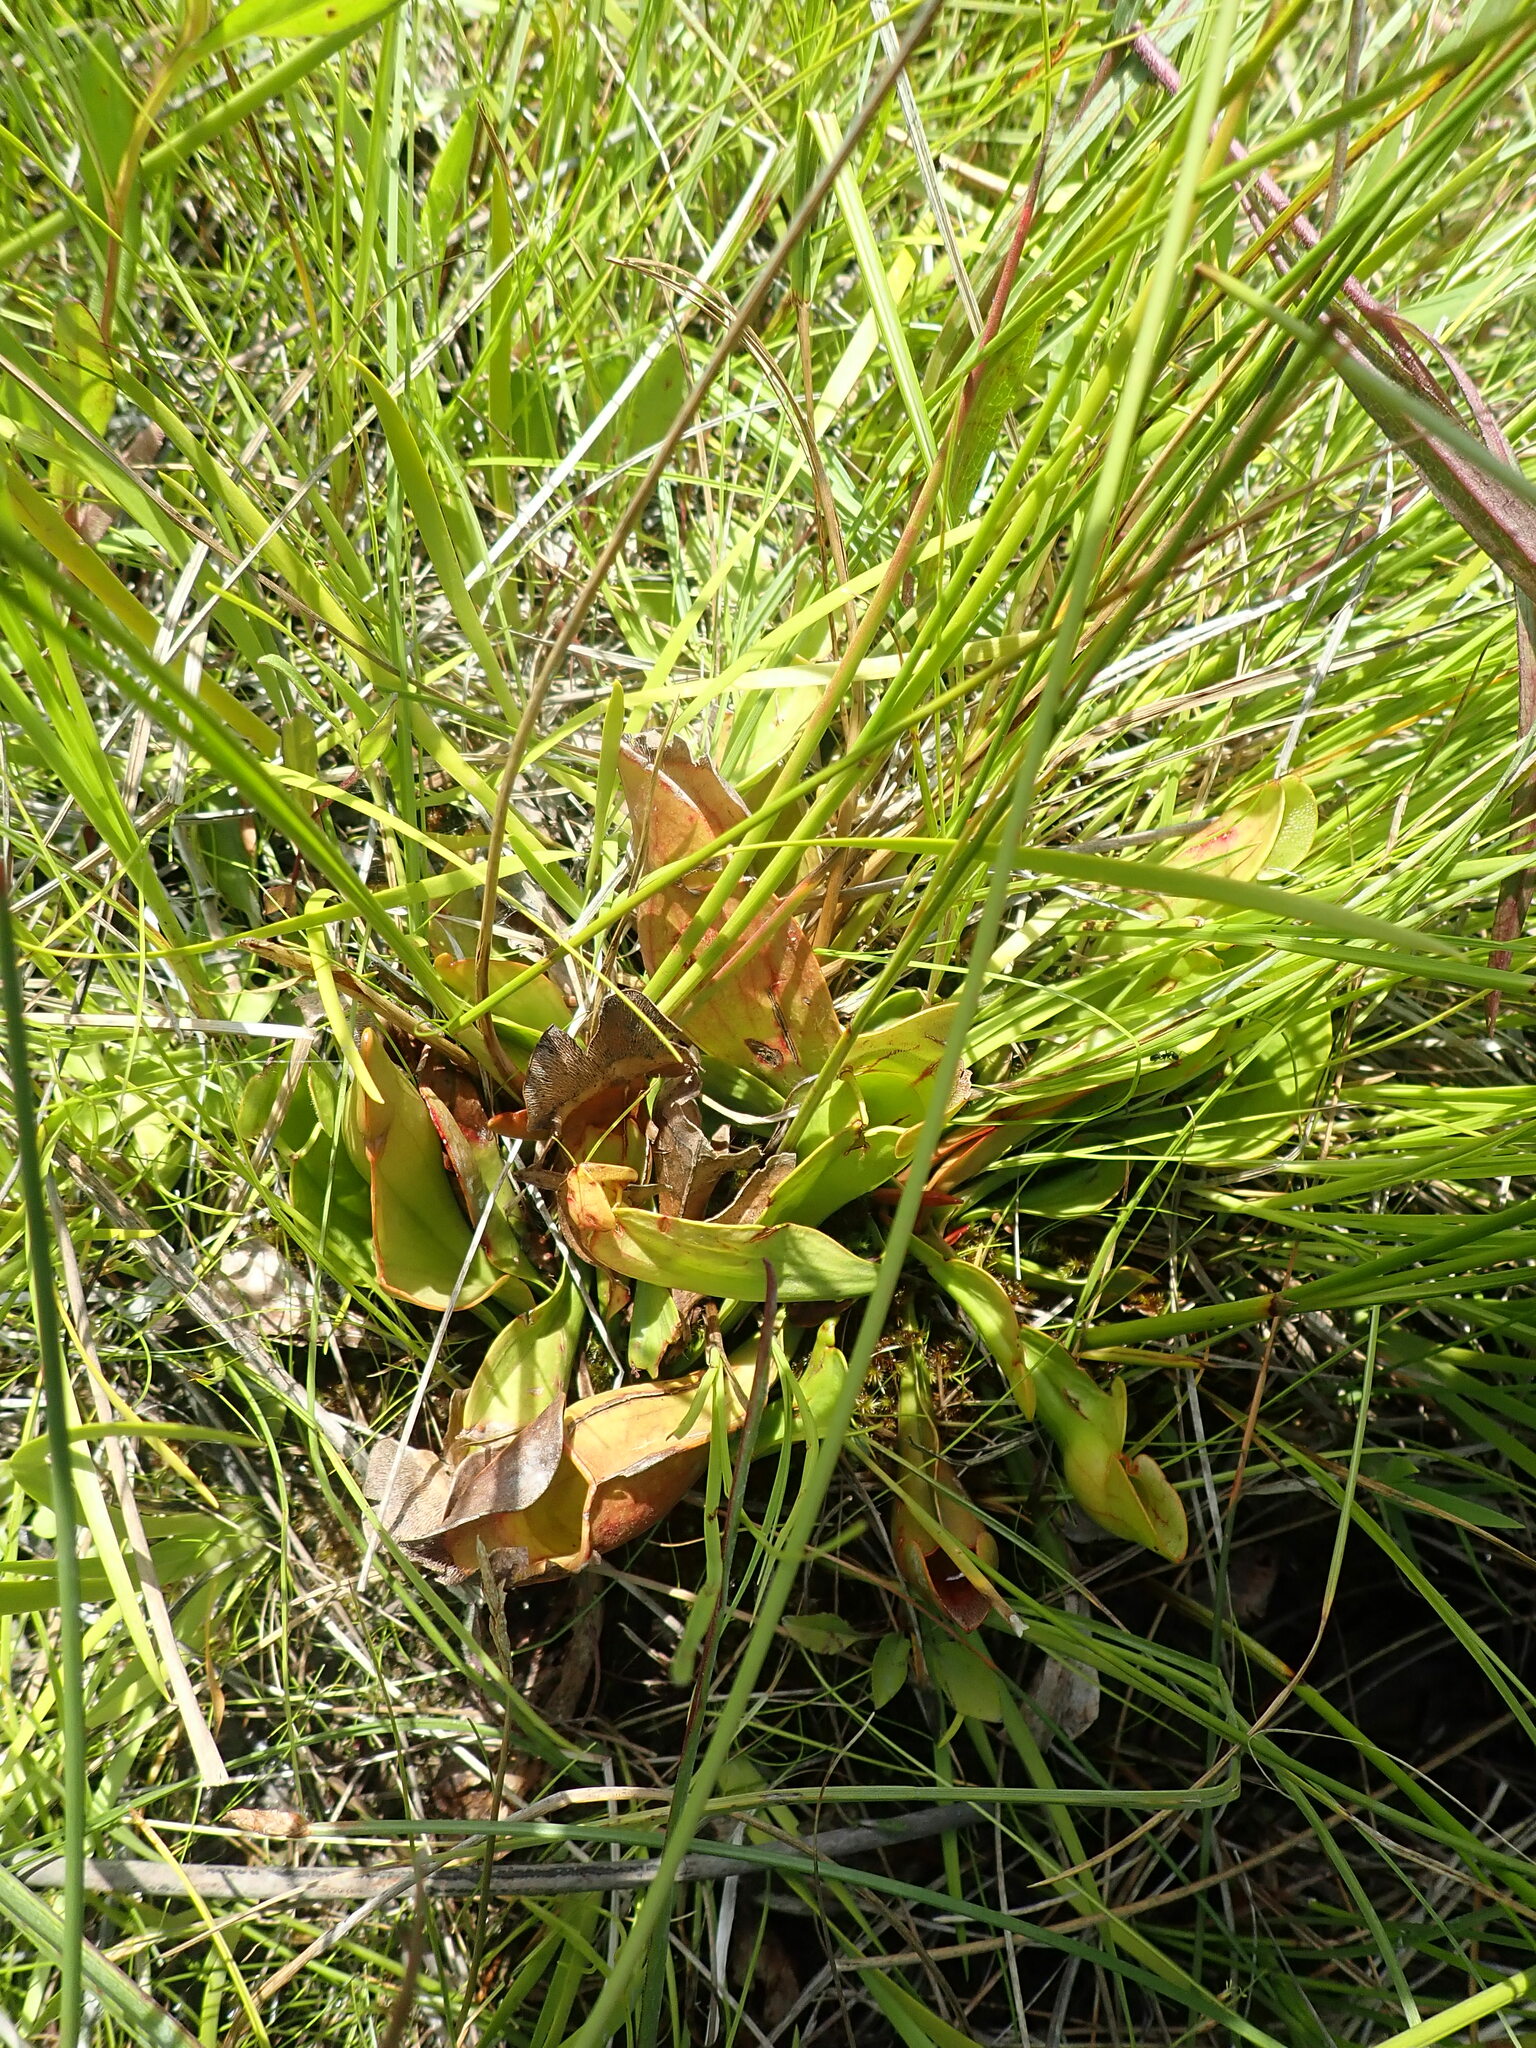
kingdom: Plantae
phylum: Tracheophyta
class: Magnoliopsida
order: Ericales
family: Sarraceniaceae
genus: Sarracenia
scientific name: Sarracenia purpurea
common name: Pitcherplant
